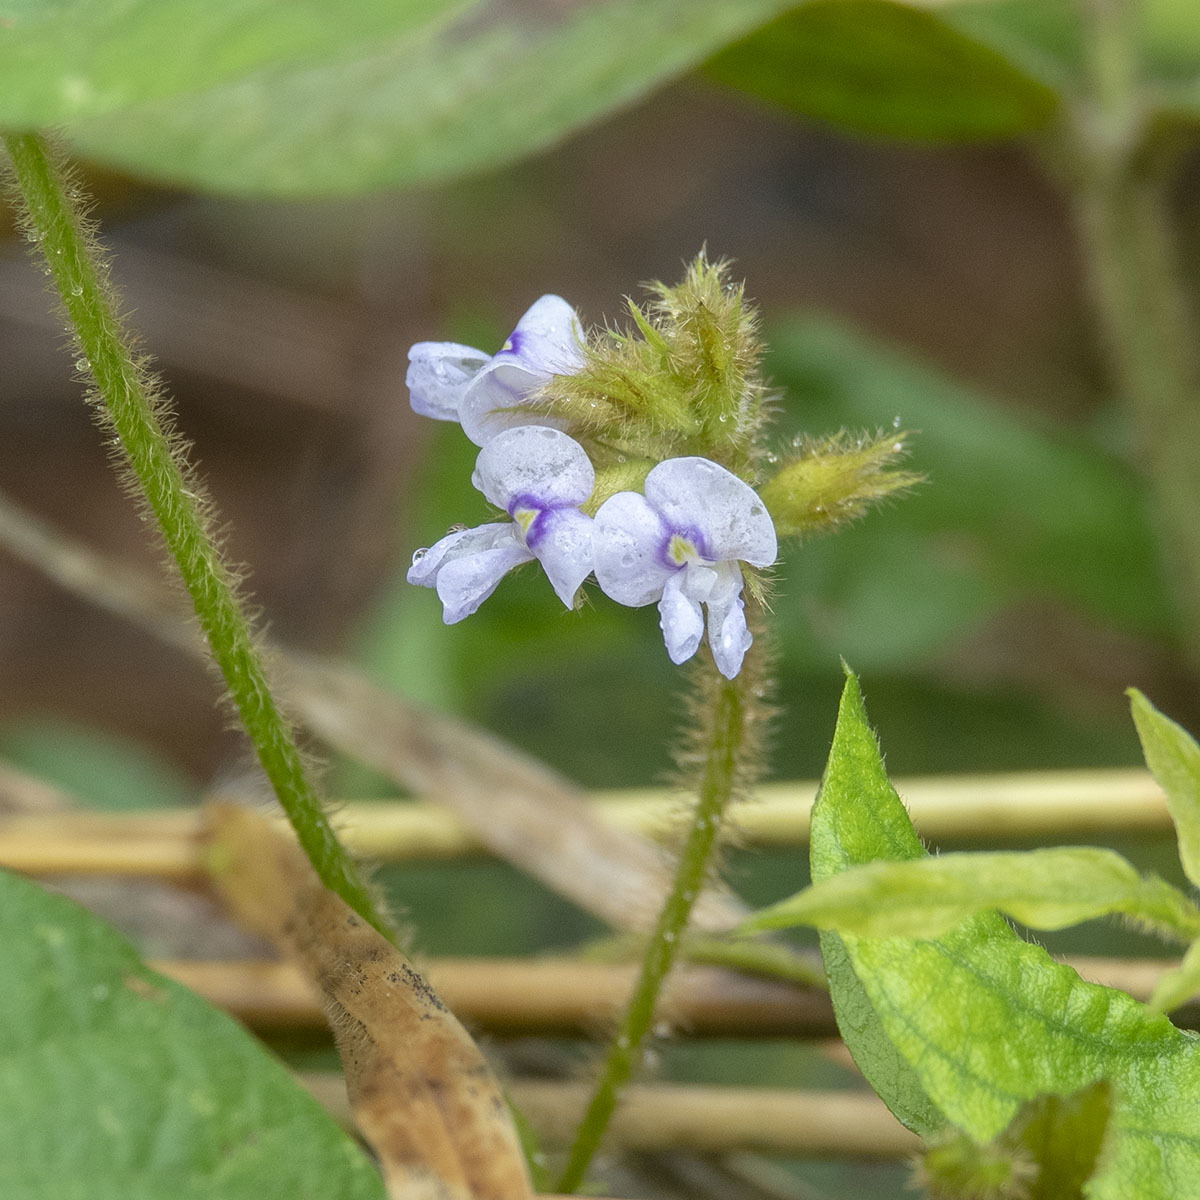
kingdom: Plantae
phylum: Tracheophyta
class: Magnoliopsida
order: Fabales
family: Fabaceae
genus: Calopogonium
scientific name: Calopogonium mucunoides
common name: Calopo
